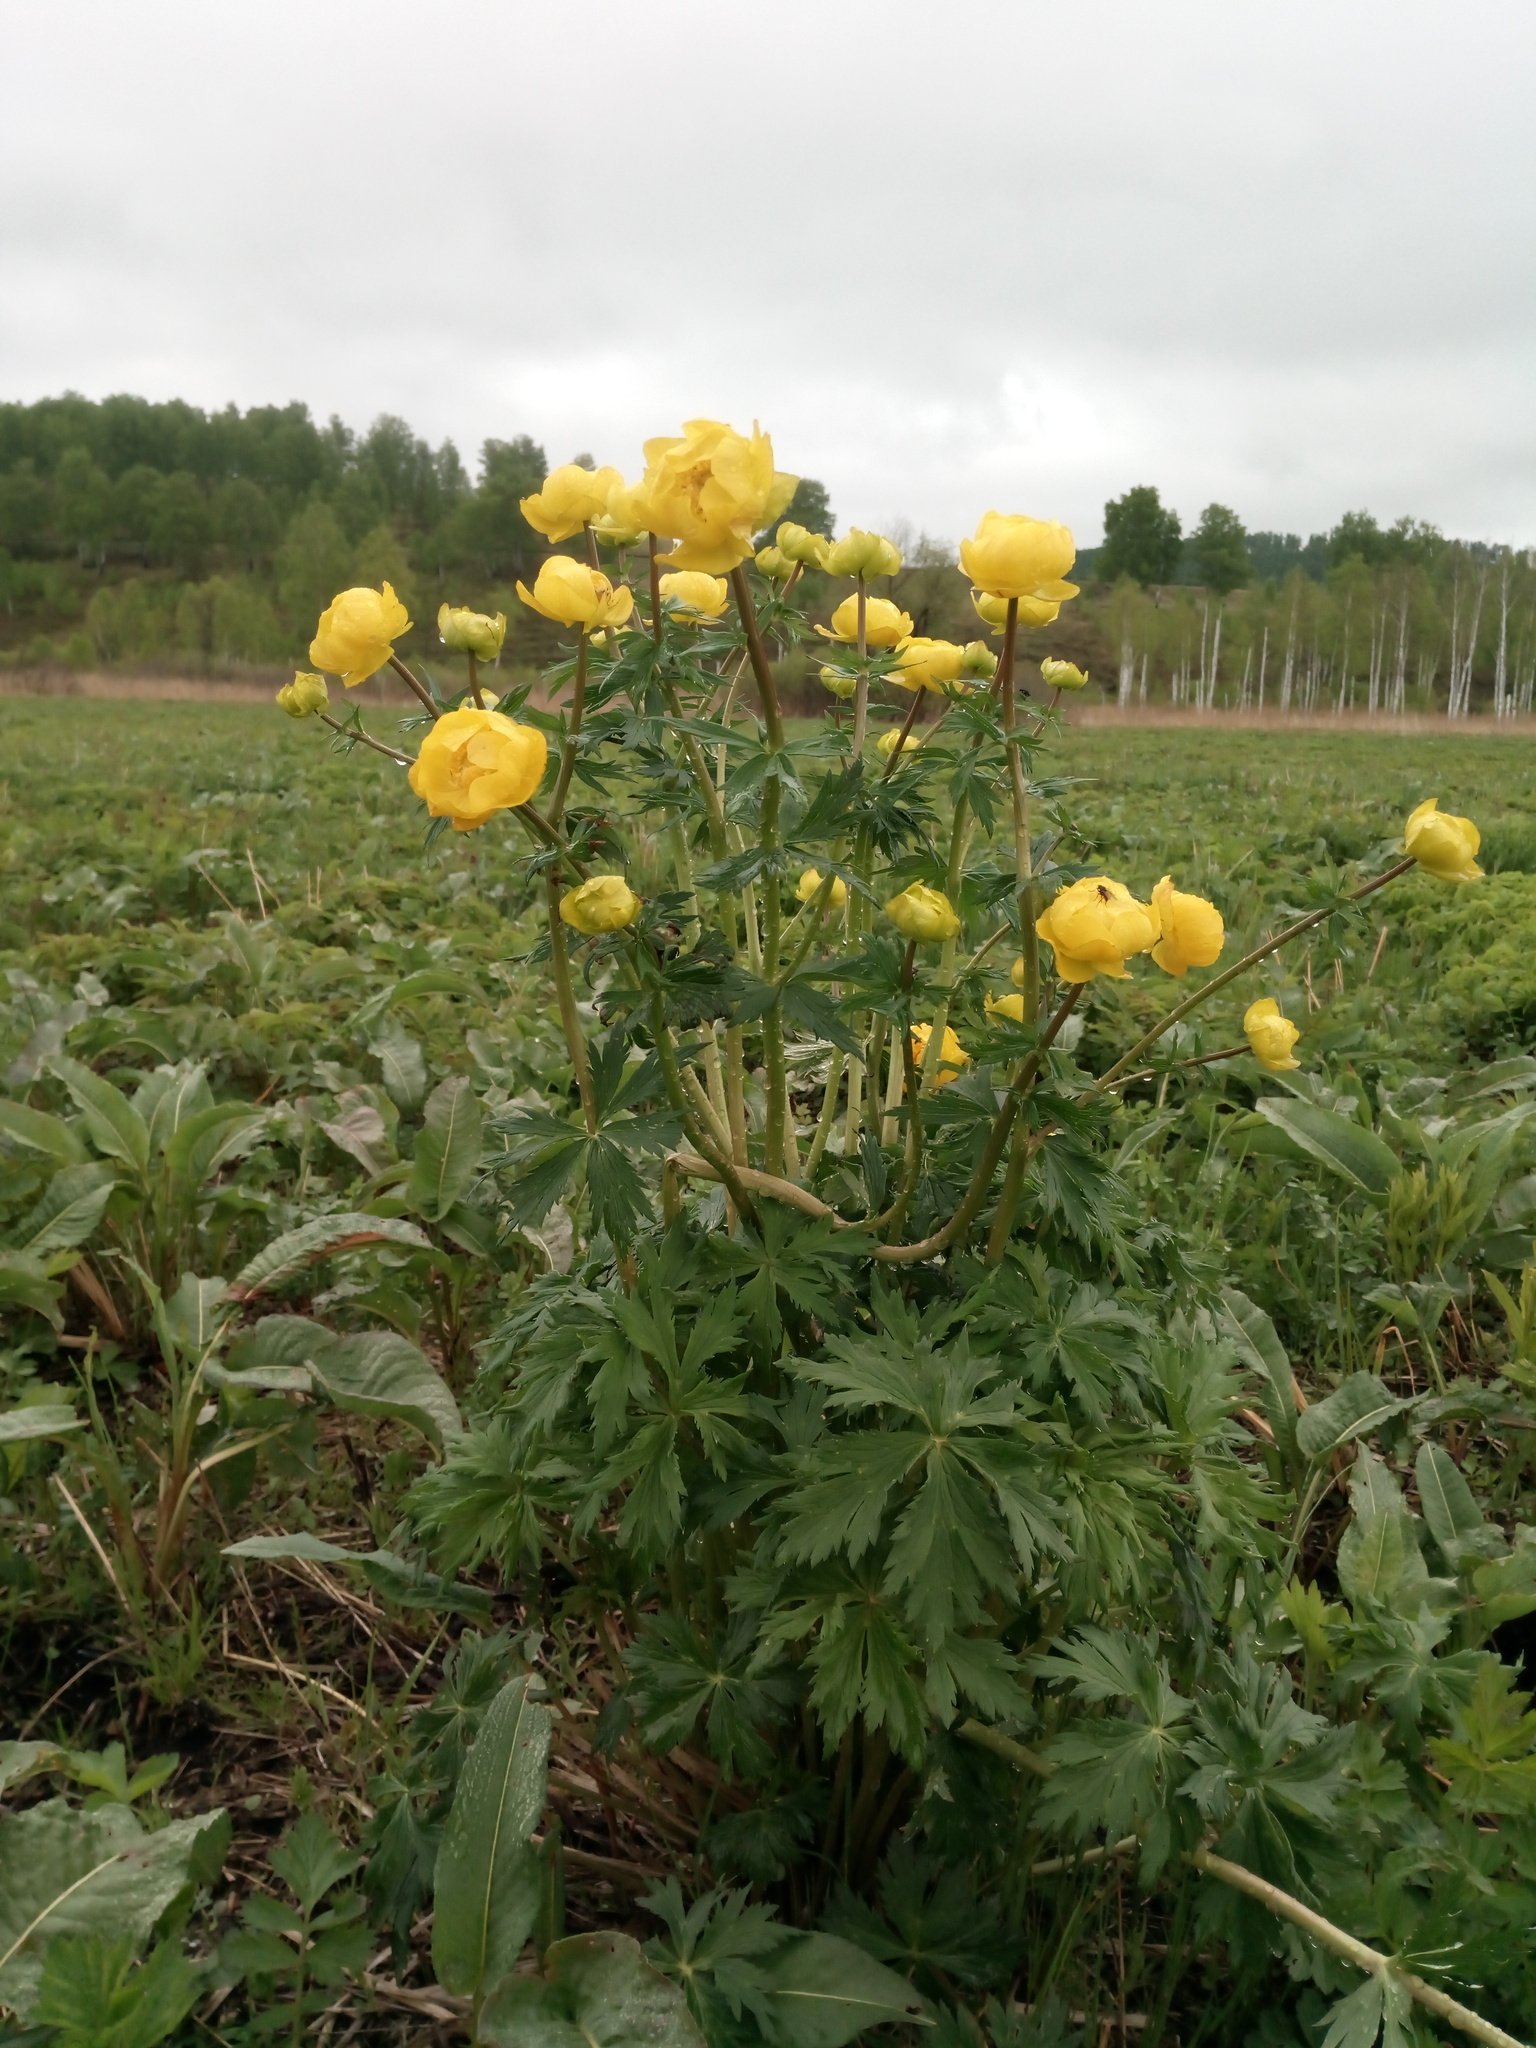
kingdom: Plantae
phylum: Tracheophyta
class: Magnoliopsida
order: Ranunculales
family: Ranunculaceae
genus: Trollius
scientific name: Trollius europaeus
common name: European globeflower
